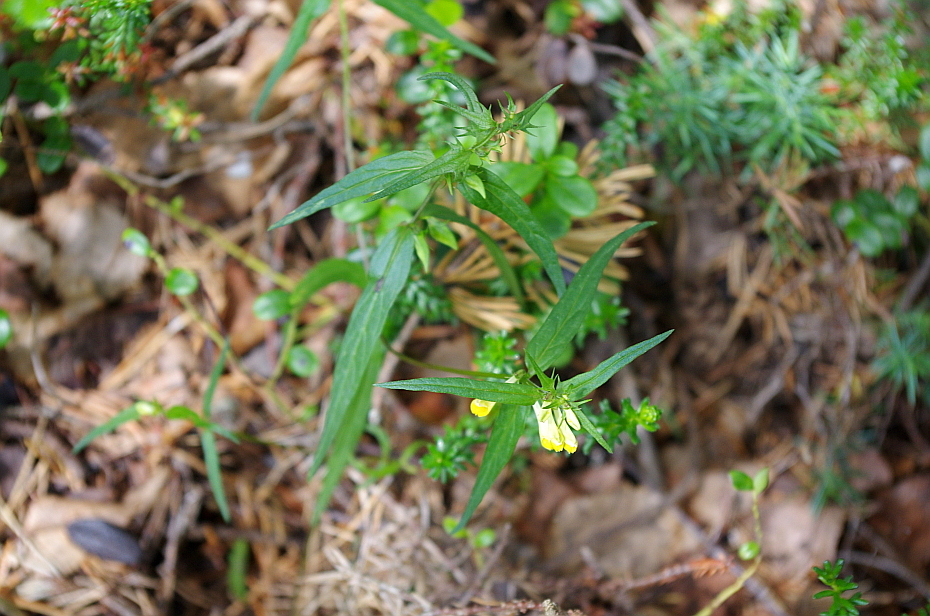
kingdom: Plantae
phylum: Tracheophyta
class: Magnoliopsida
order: Lamiales
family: Orobanchaceae
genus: Melampyrum
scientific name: Melampyrum pratense
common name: Common cow-wheat
